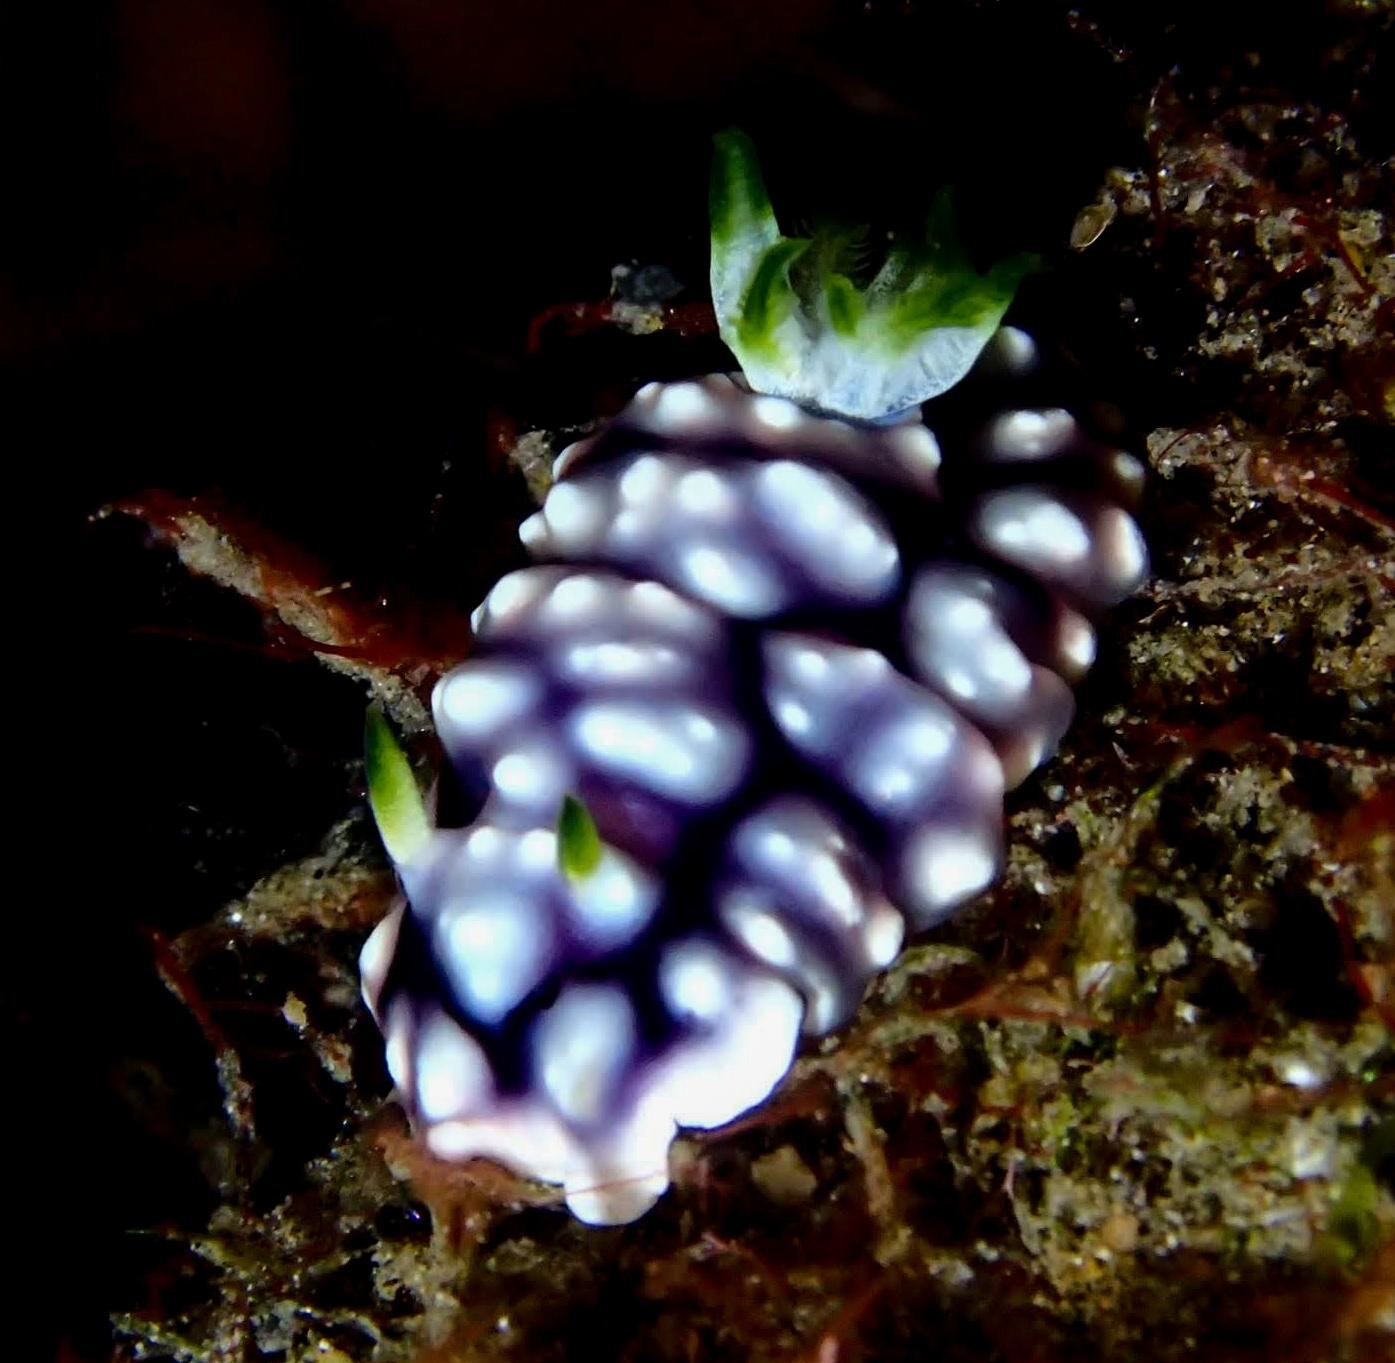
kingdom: Animalia
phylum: Mollusca
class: Gastropoda
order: Nudibranchia
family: Chromodorididae
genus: Goniobranchus
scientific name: Goniobranchus geometricus
